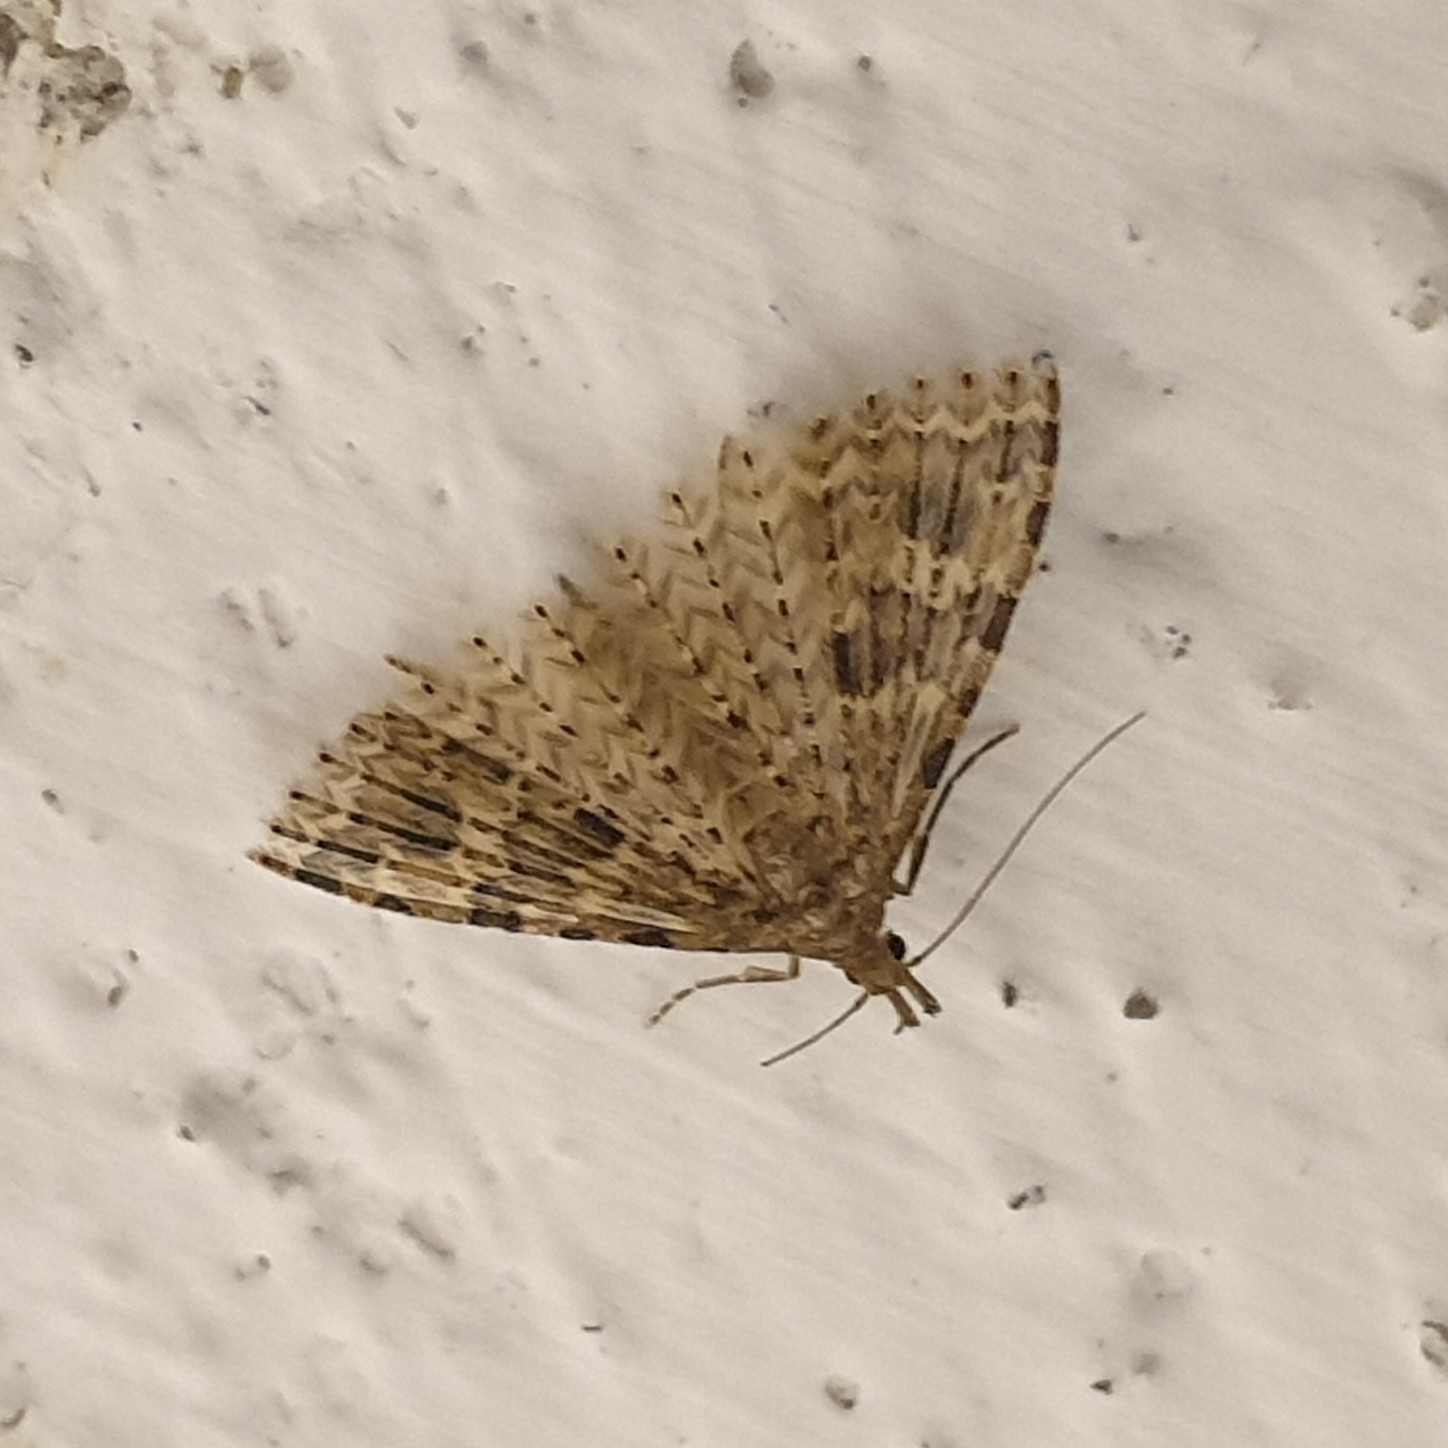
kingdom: Animalia
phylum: Arthropoda
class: Insecta
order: Lepidoptera
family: Alucitidae
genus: Alucita
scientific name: Alucita hexadactyla
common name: Twenty-plume moth
